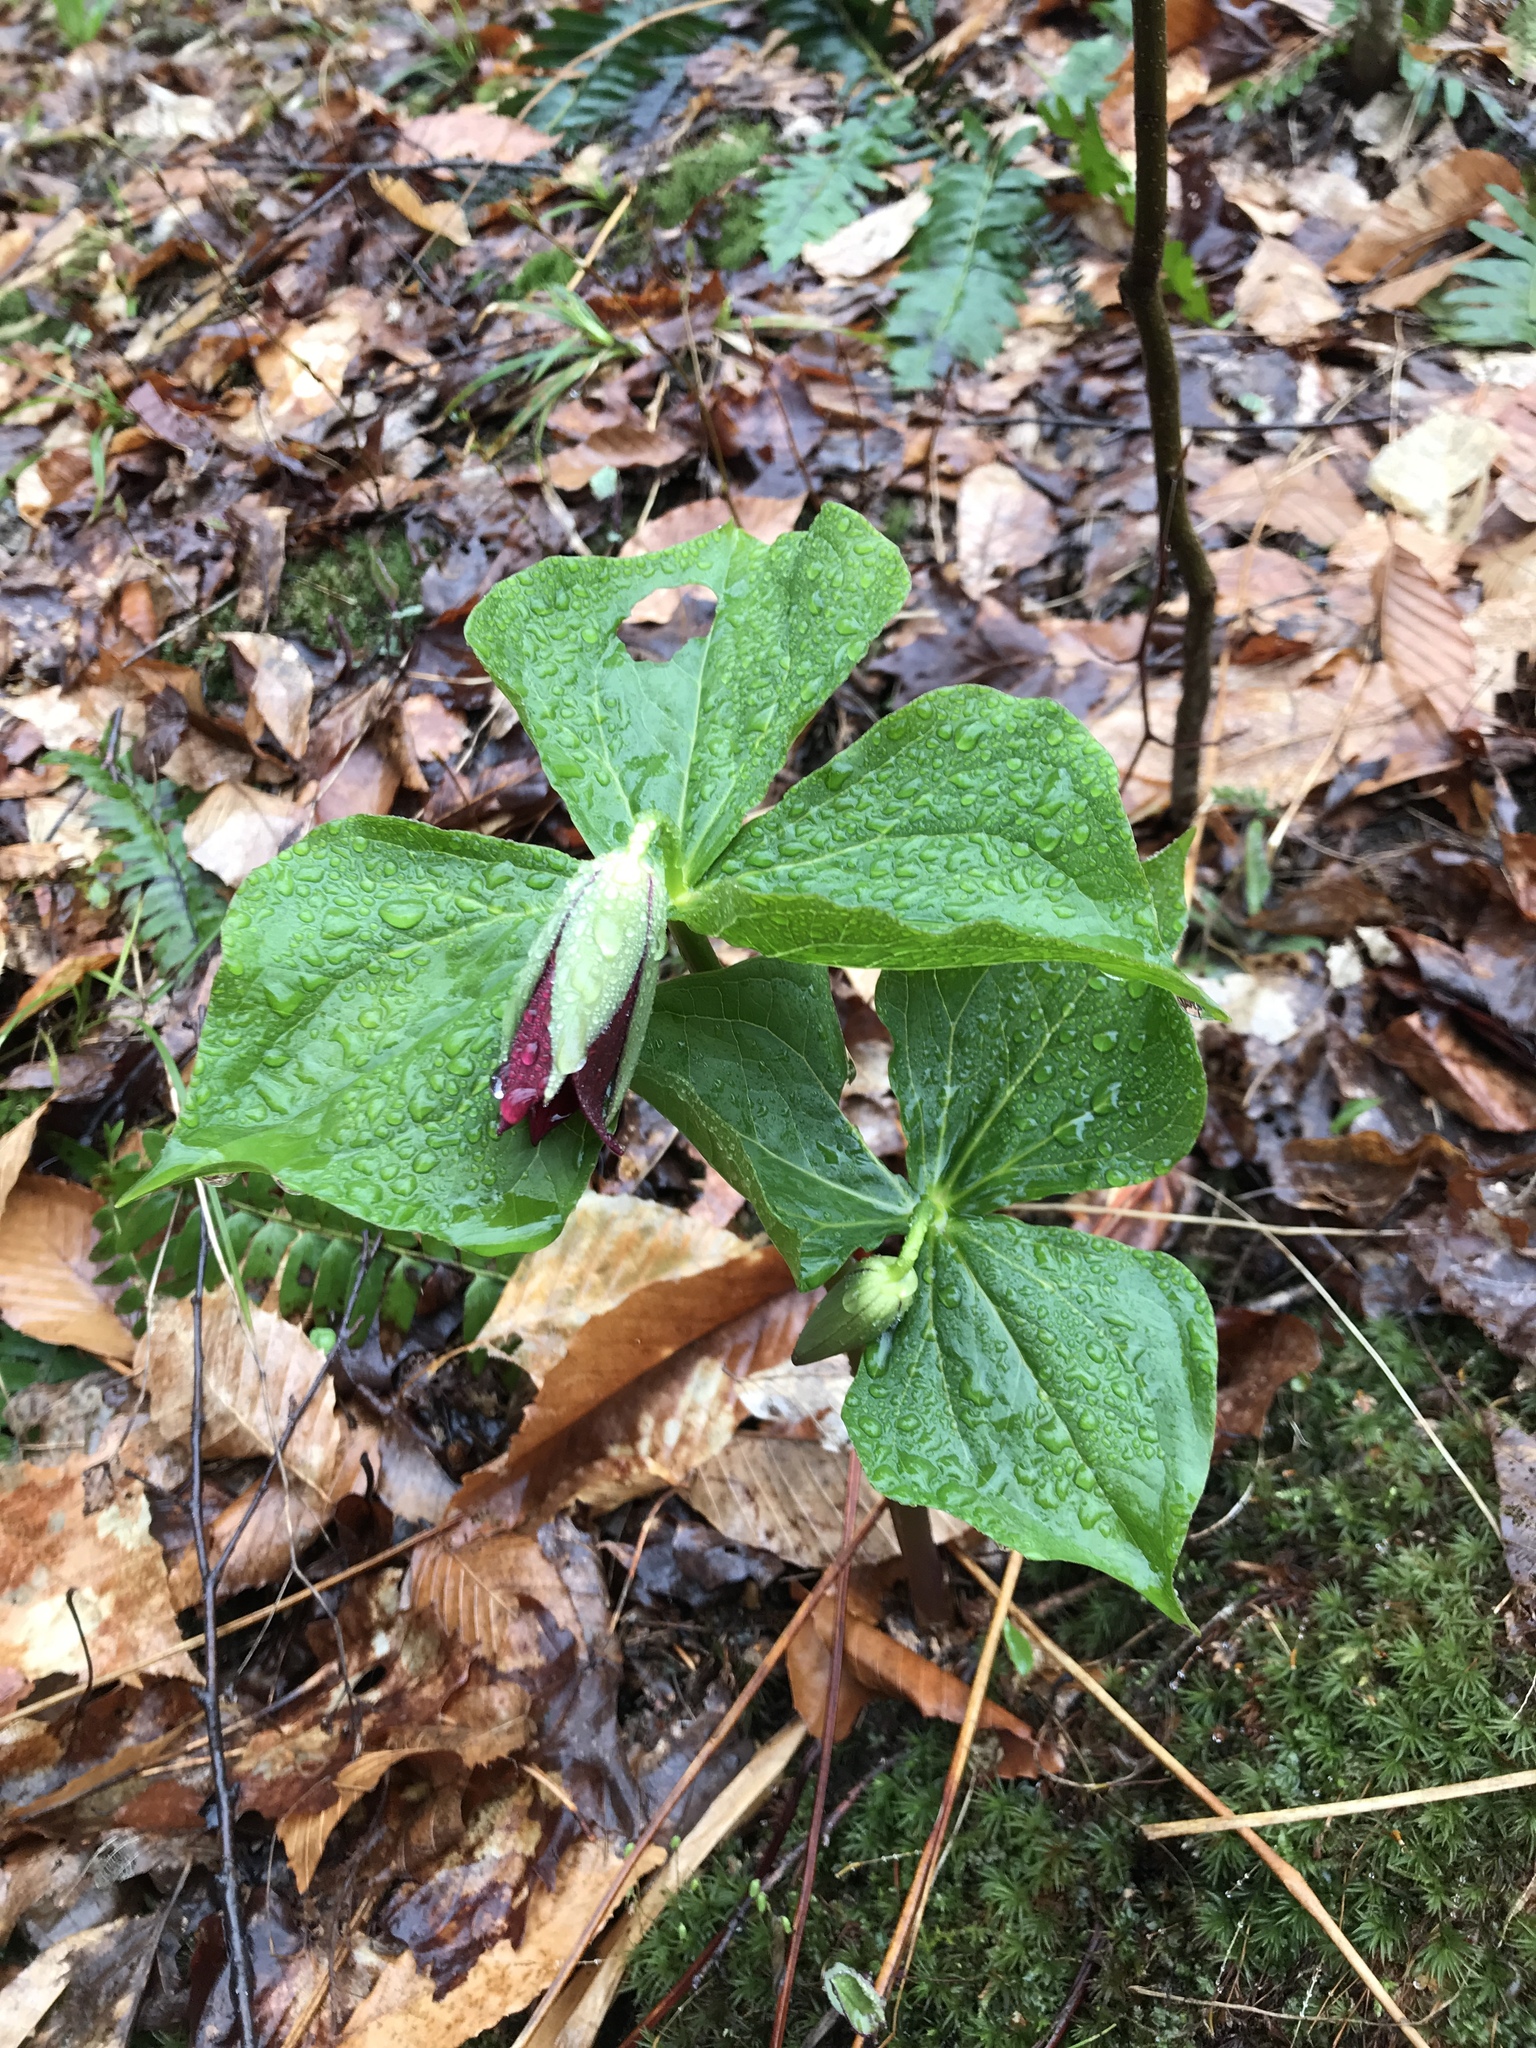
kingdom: Plantae
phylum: Tracheophyta
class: Liliopsida
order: Liliales
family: Melanthiaceae
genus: Trillium
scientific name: Trillium erectum
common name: Purple trillium
